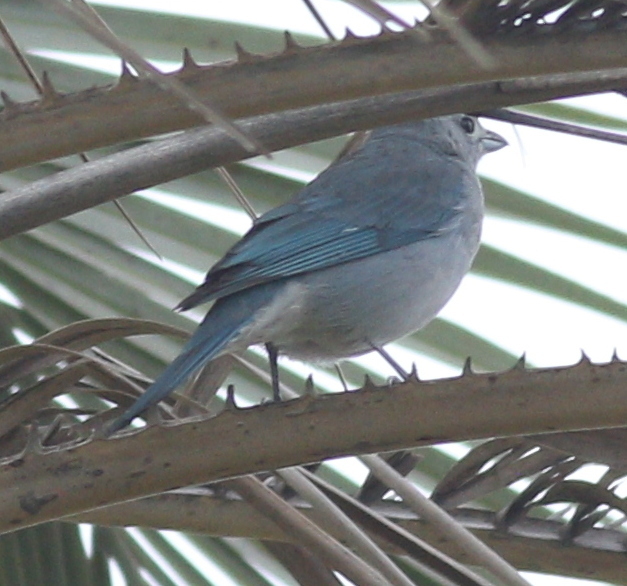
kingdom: Animalia
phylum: Chordata
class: Aves
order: Passeriformes
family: Thraupidae
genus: Thraupis
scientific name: Thraupis sayaca
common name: Sayaca tanager
